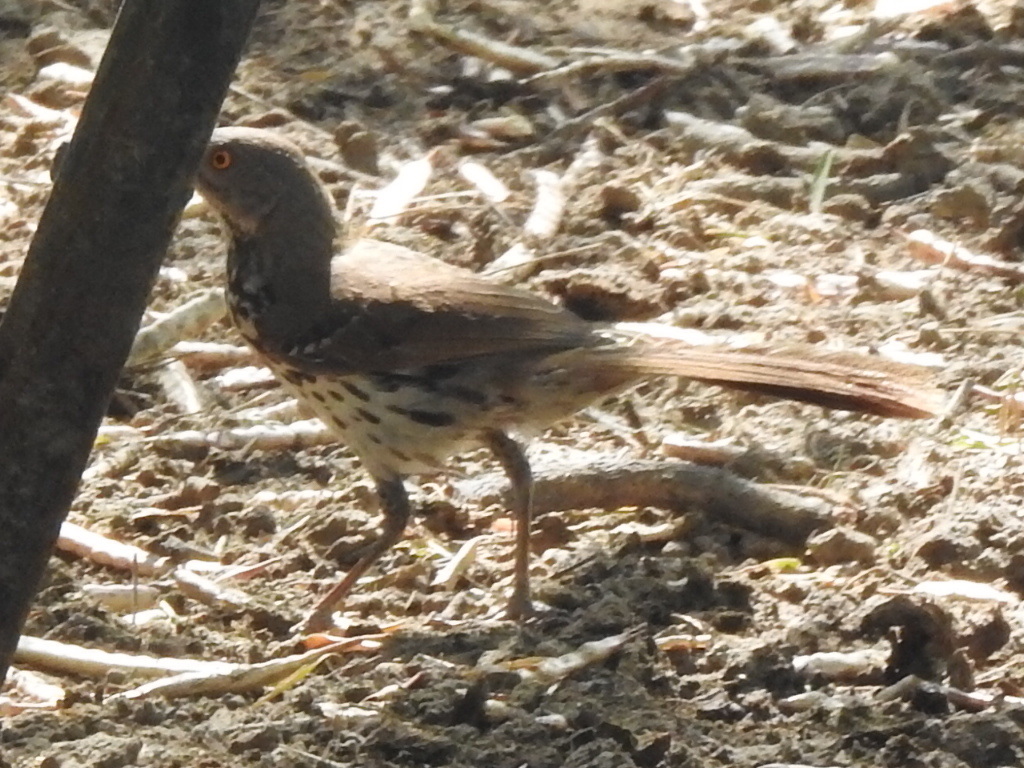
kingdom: Animalia
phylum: Chordata
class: Aves
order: Passeriformes
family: Mimidae
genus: Toxostoma
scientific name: Toxostoma longirostre
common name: Long-billed thrasher
